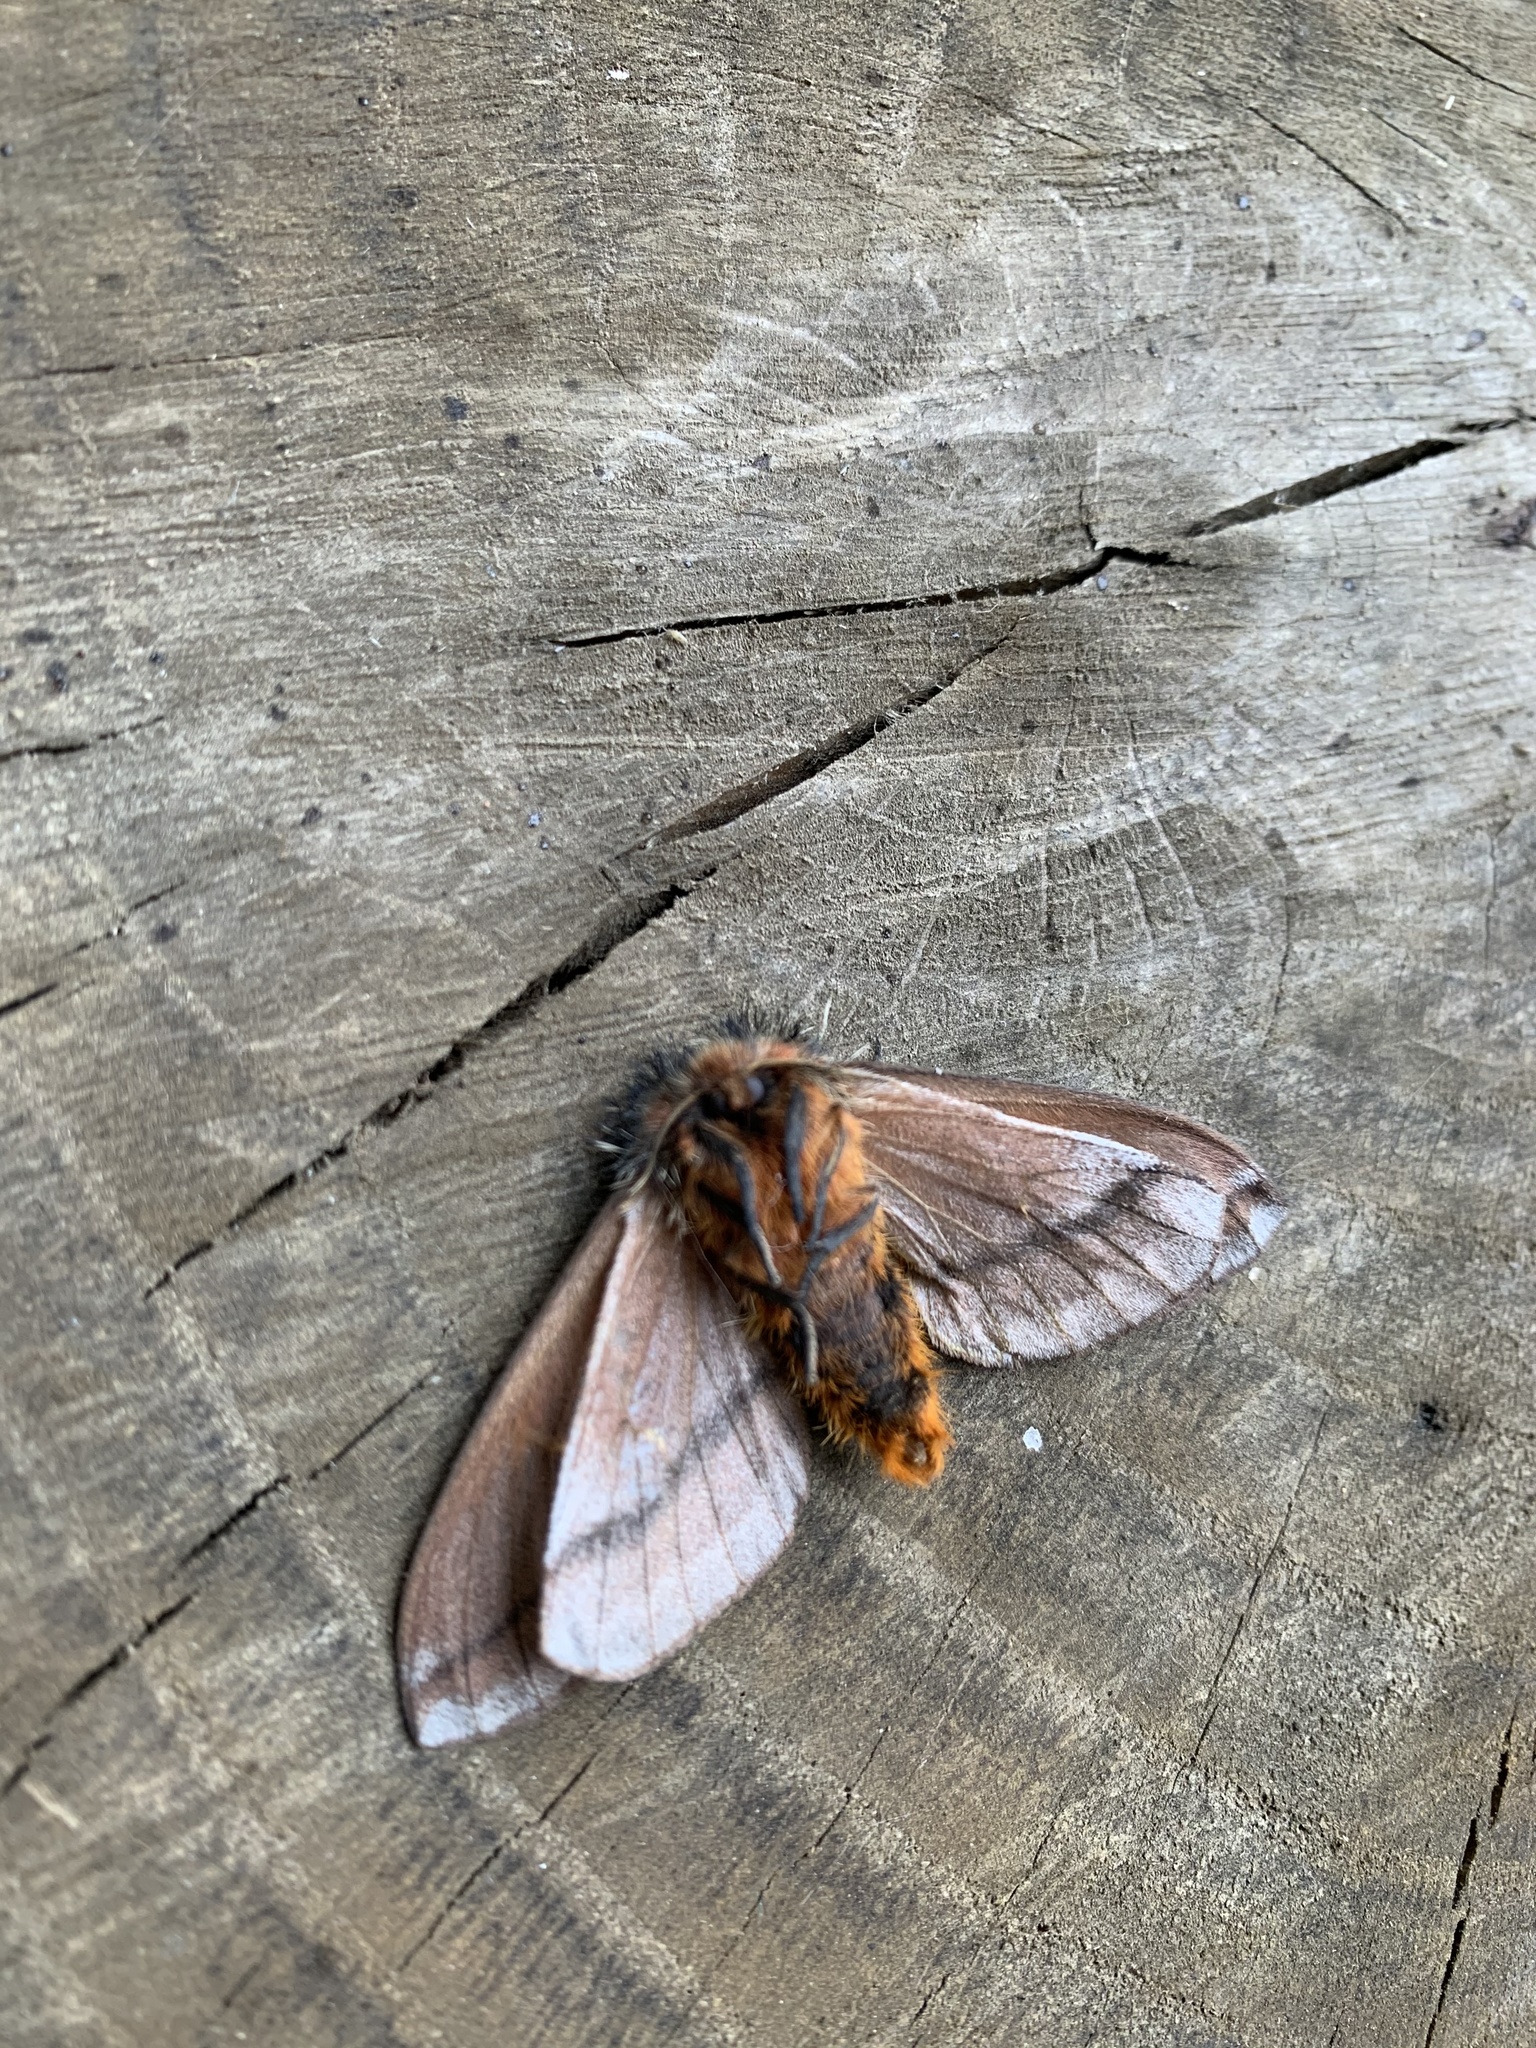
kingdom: Animalia
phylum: Arthropoda
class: Insecta
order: Lepidoptera
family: Saturniidae
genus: Ormiscodes
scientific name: Ormiscodes amphinome
